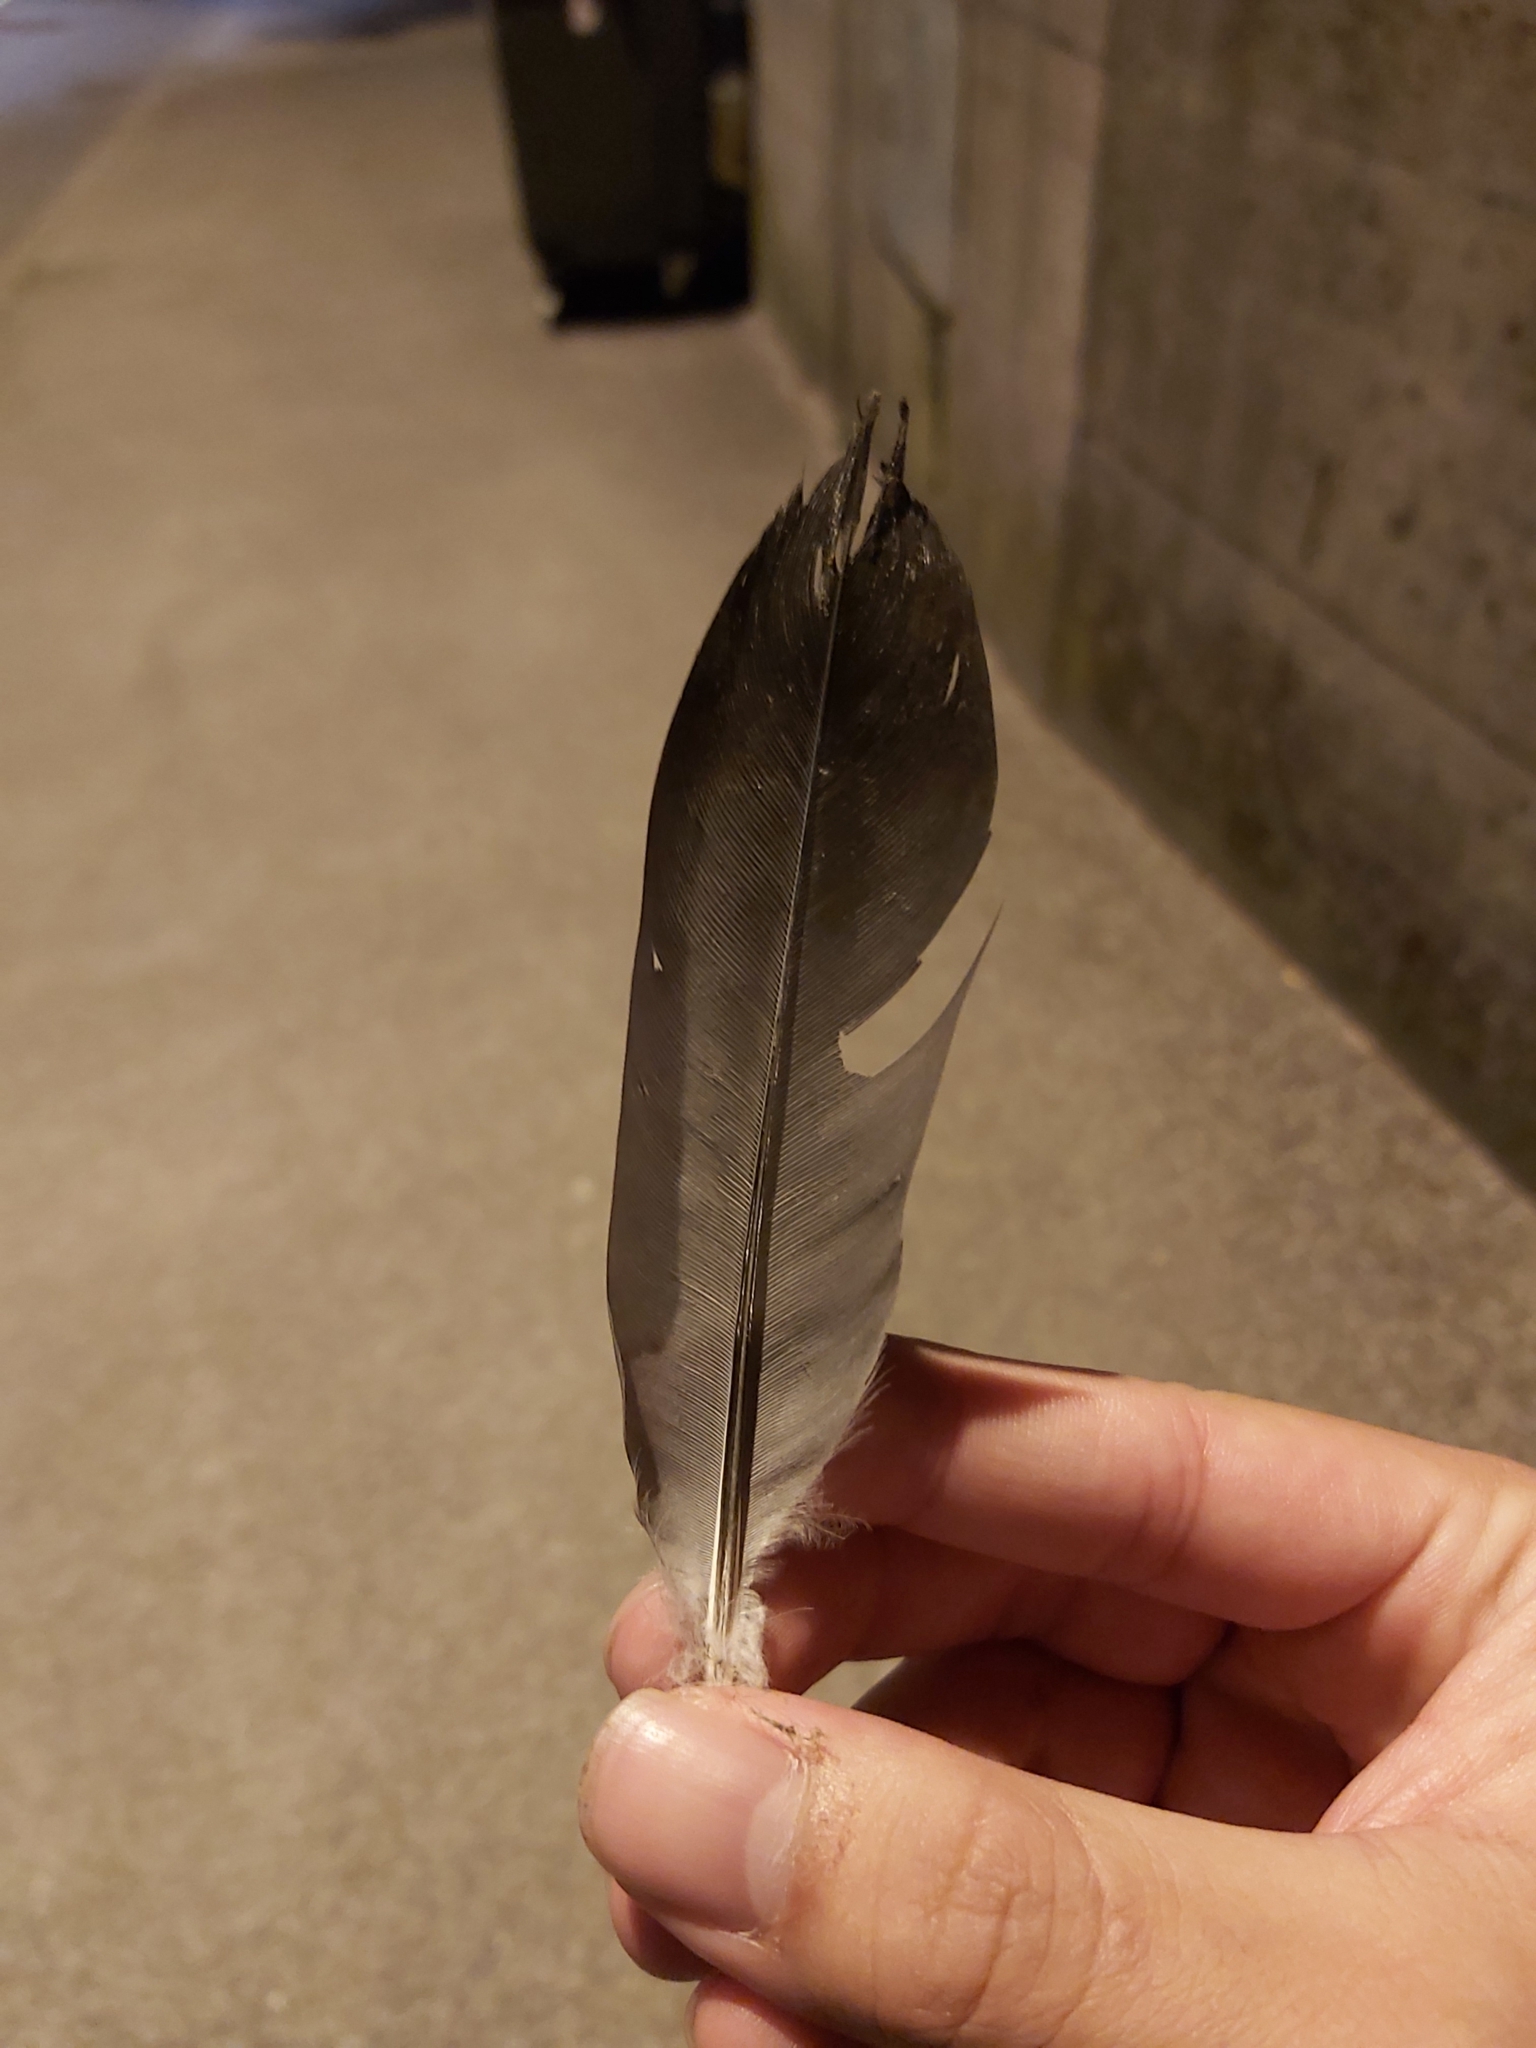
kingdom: Animalia
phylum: Chordata
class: Aves
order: Columbiformes
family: Columbidae
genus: Columba
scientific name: Columba livia
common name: Rock pigeon
